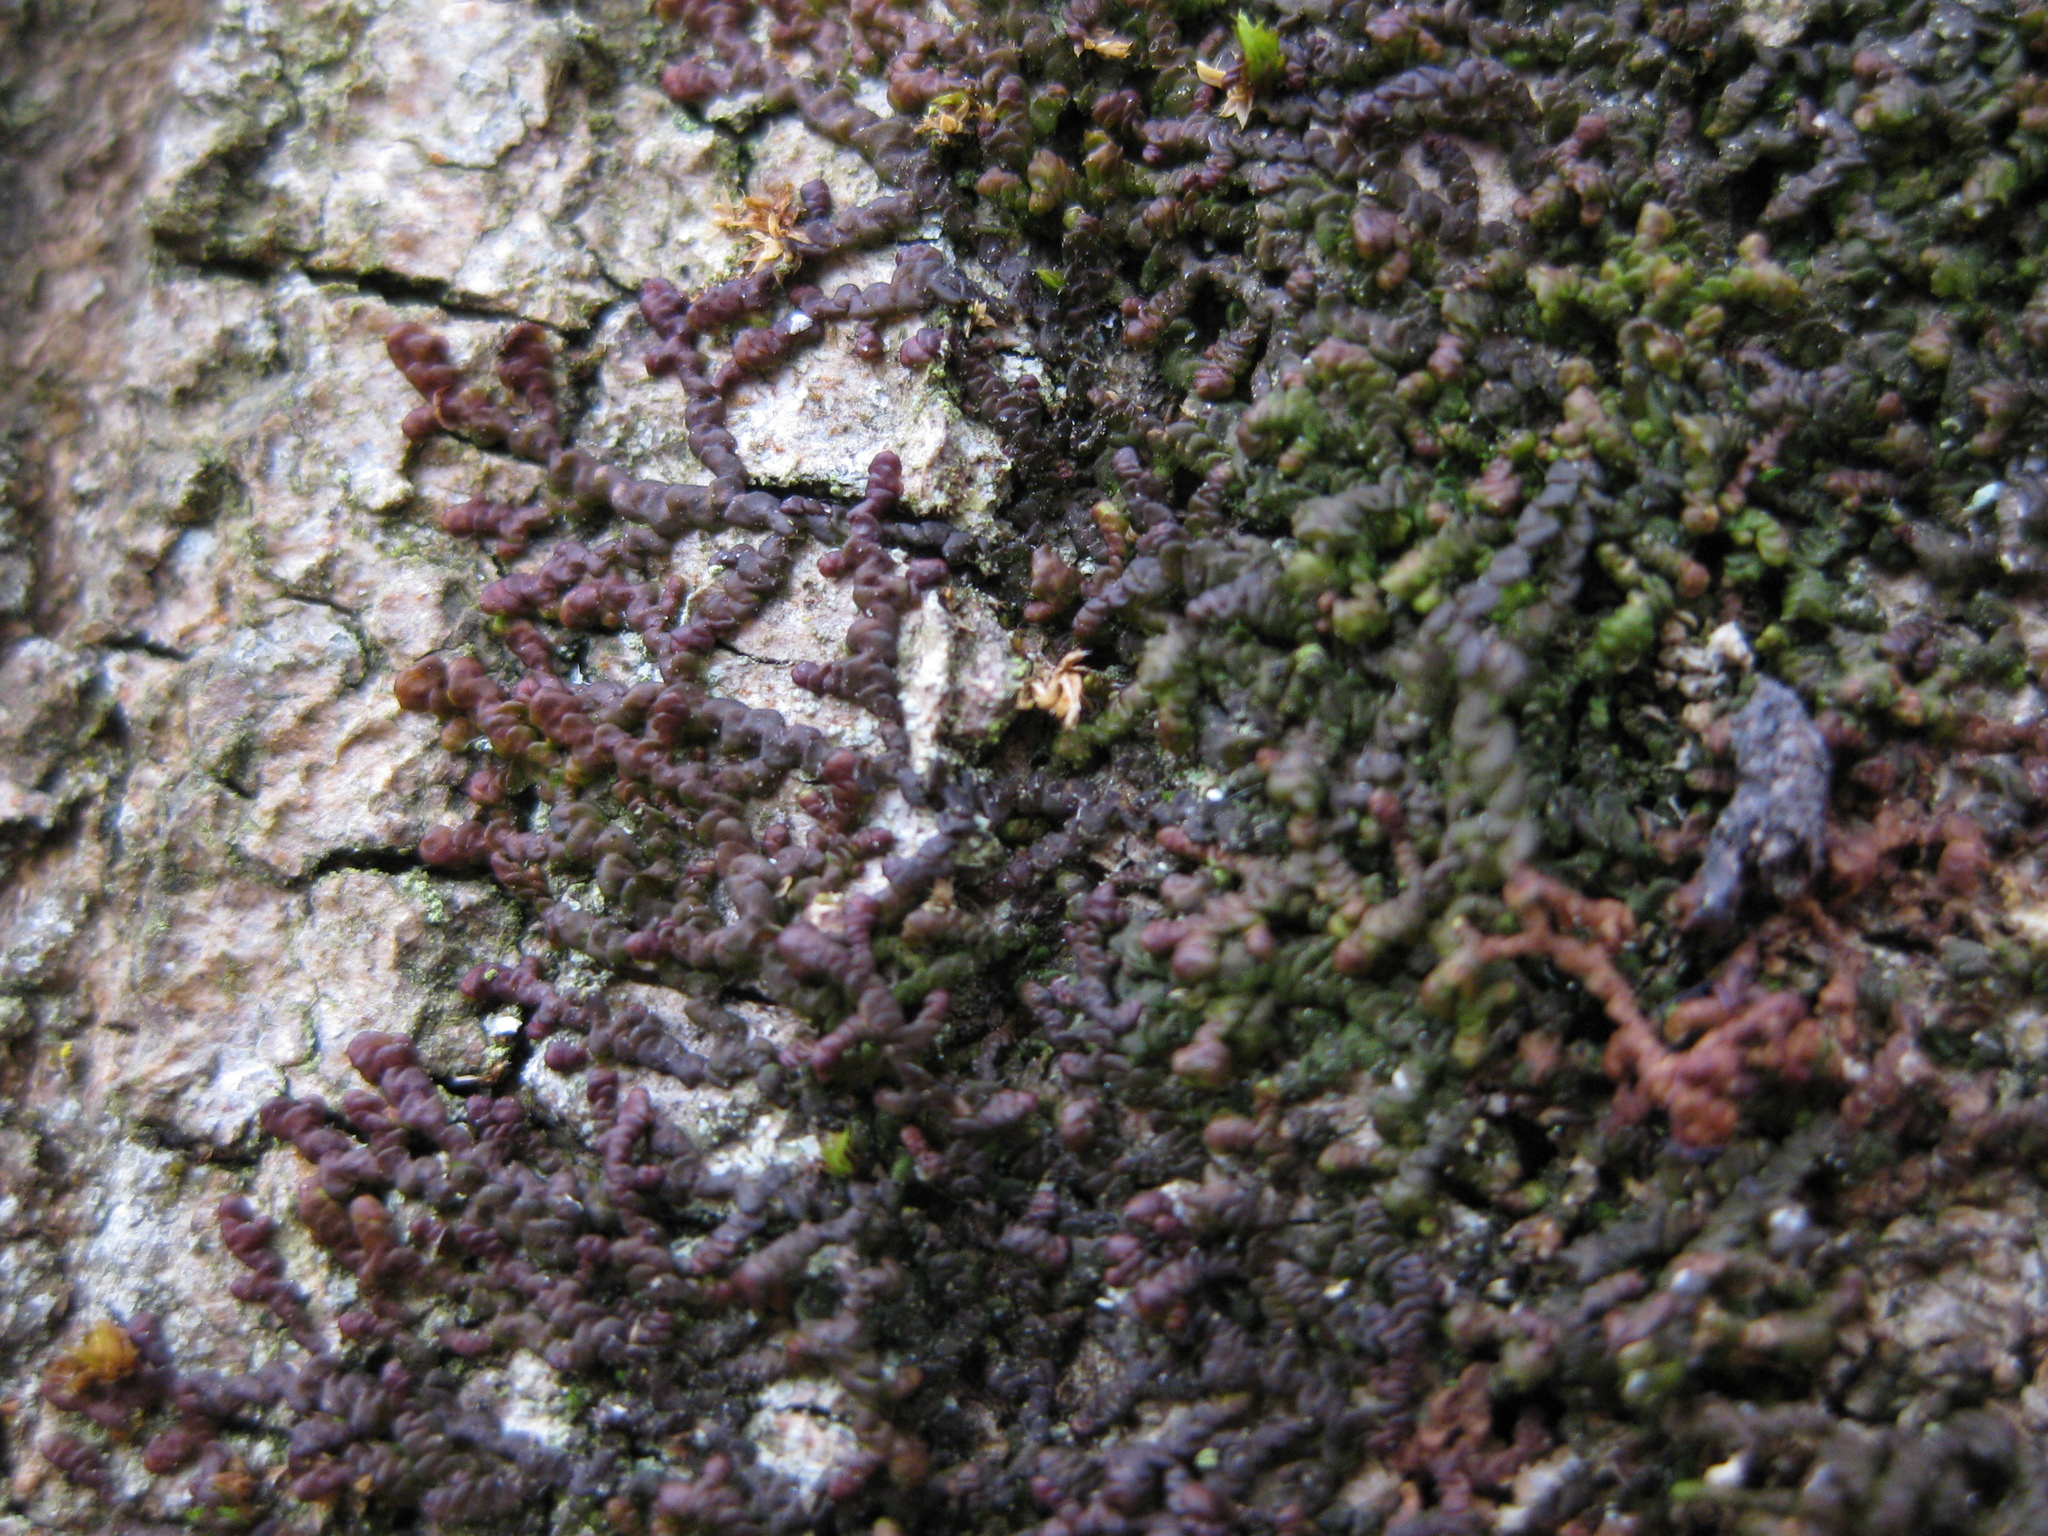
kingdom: Plantae
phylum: Marchantiophyta
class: Jungermanniopsida
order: Porellales
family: Frullaniaceae
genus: Frullania
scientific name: Frullania dilatata
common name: Dilated scalewort
